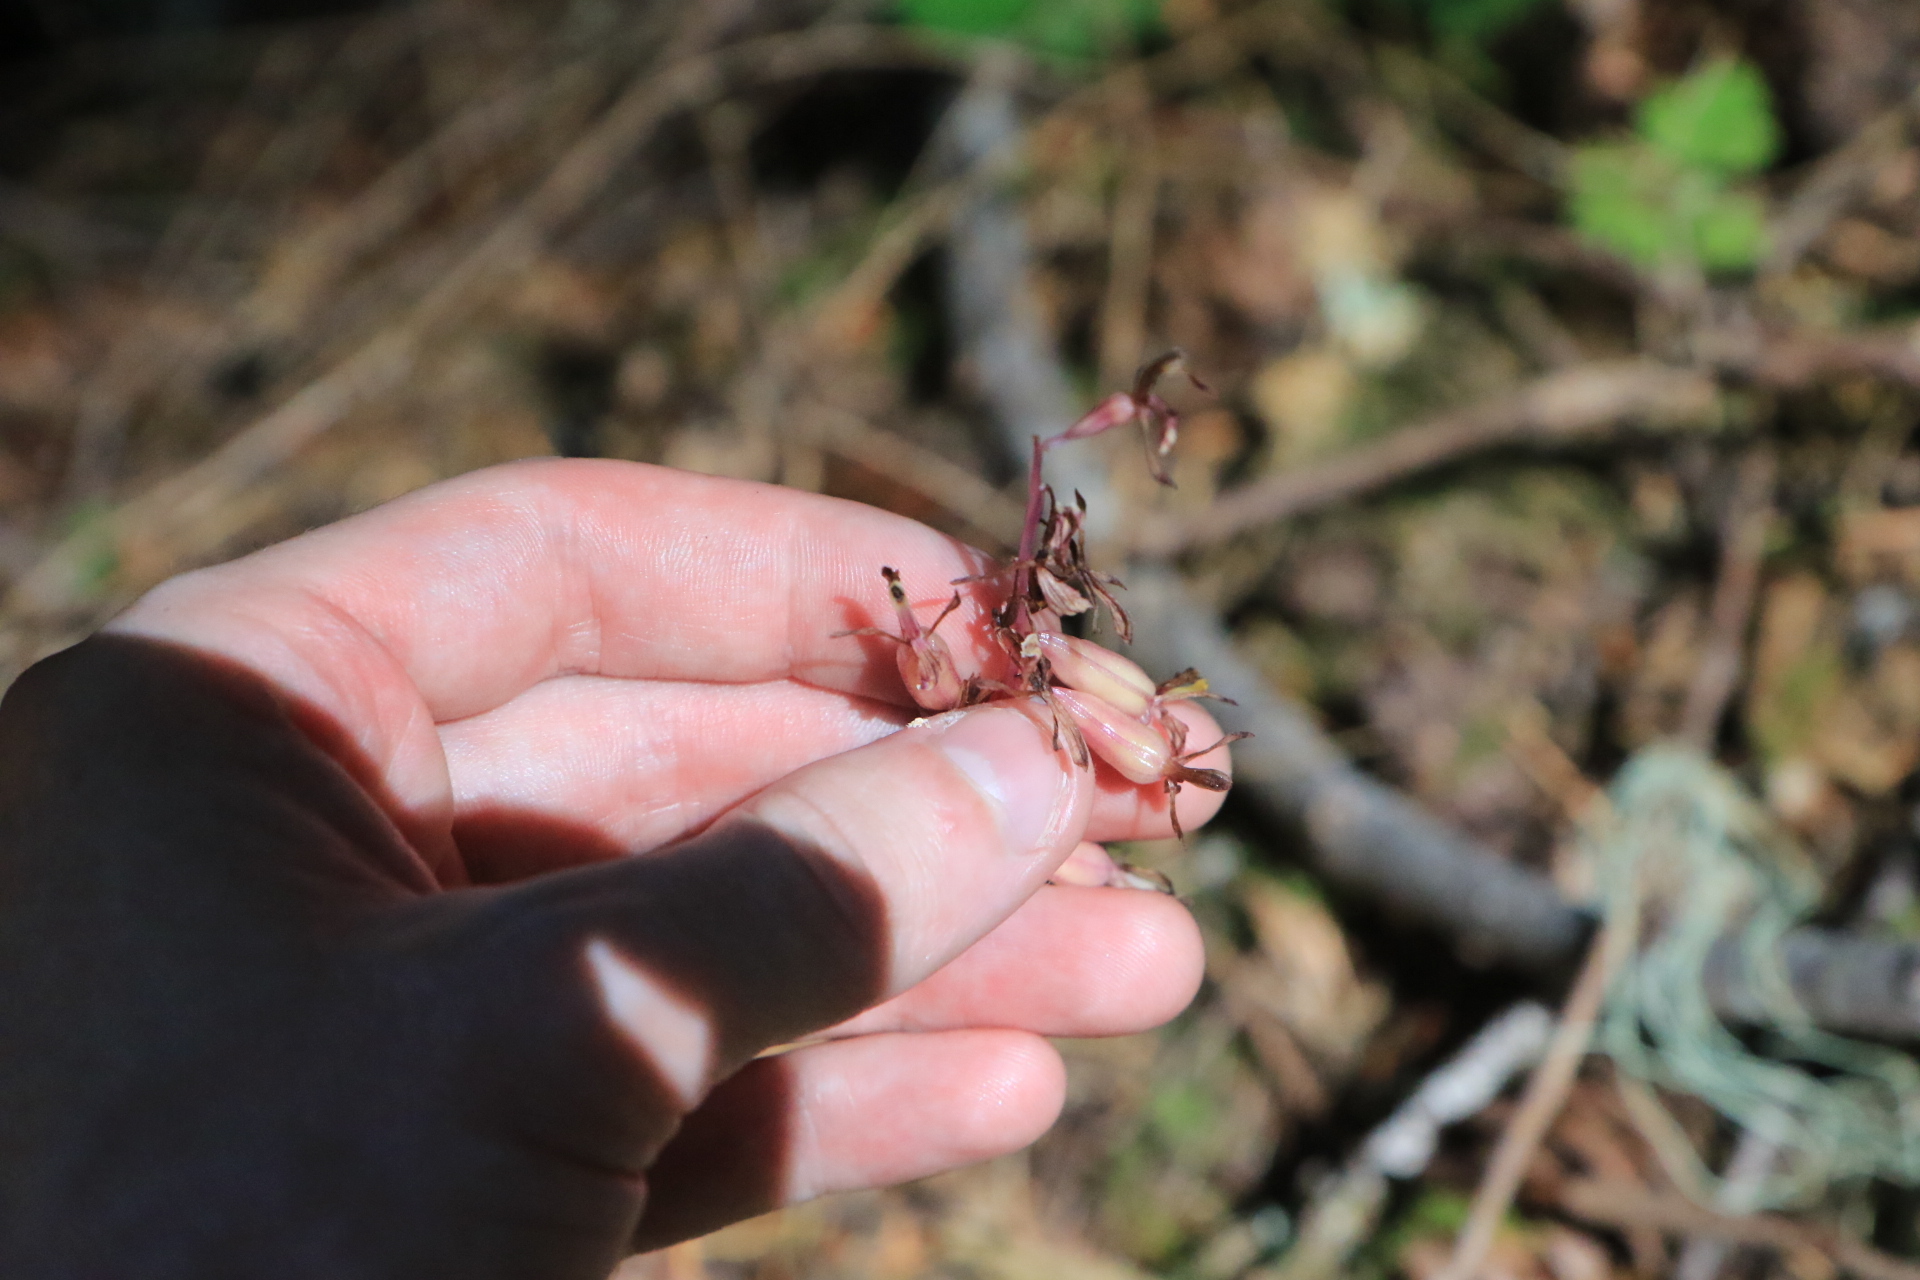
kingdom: Plantae
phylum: Tracheophyta
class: Liliopsida
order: Asparagales
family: Orchidaceae
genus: Corallorhiza
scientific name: Corallorhiza mertensiana
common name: Pacific coralroot
